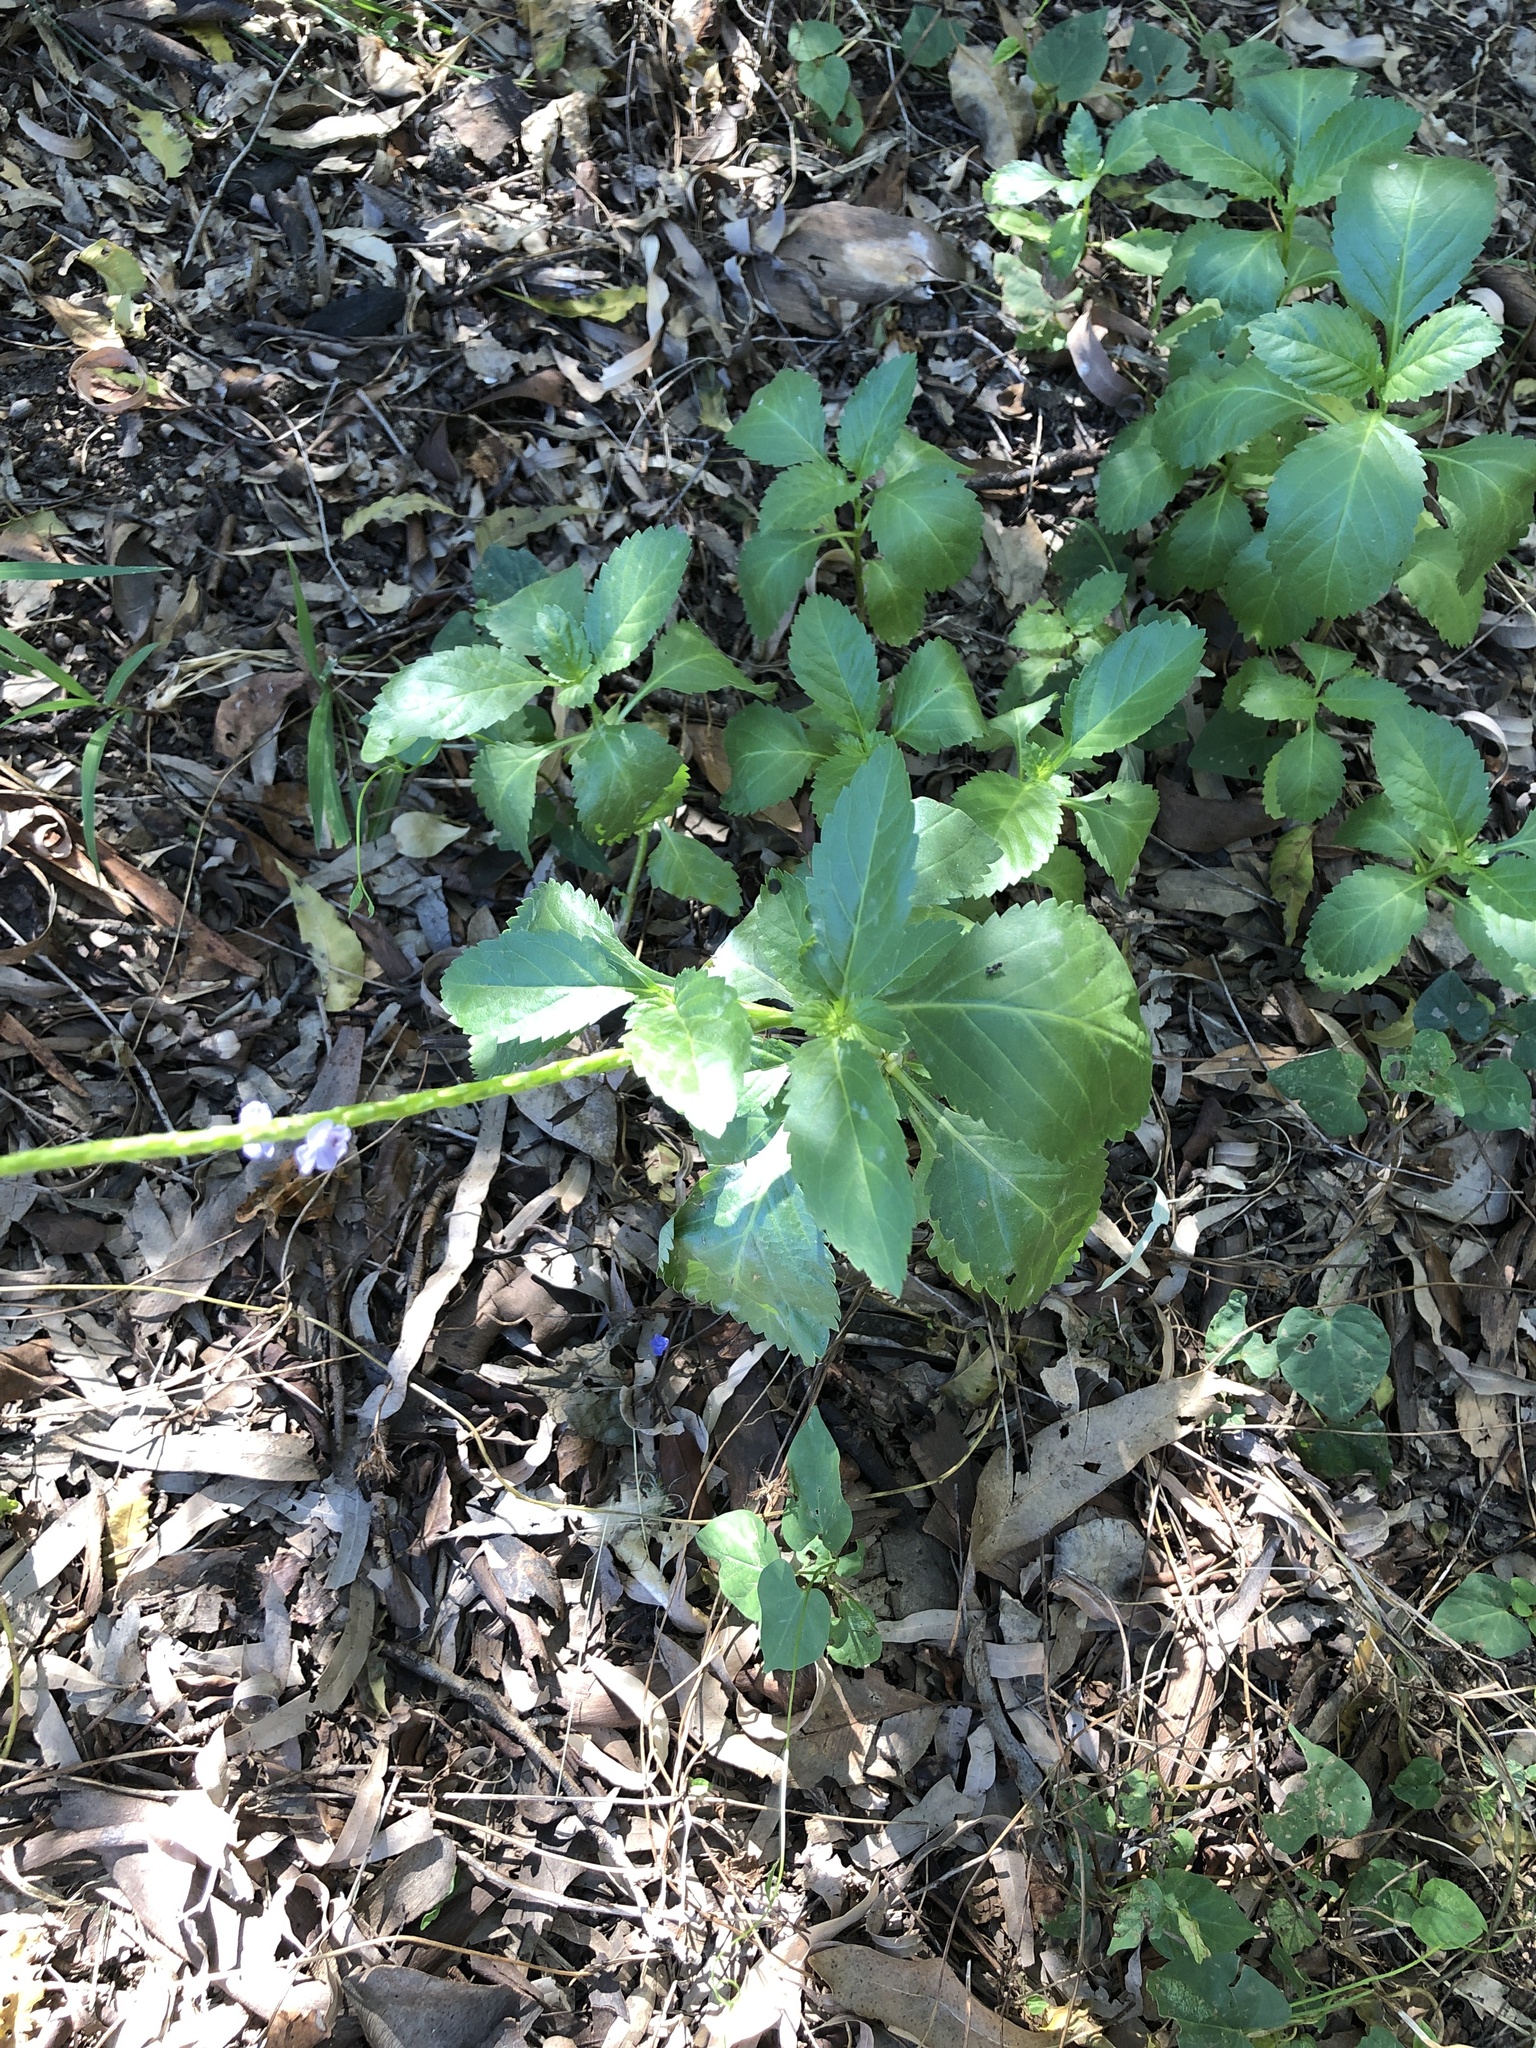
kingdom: Plantae
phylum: Tracheophyta
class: Magnoliopsida
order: Lamiales
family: Verbenaceae
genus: Stachytarpheta
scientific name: Stachytarpheta jamaicensis
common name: Light-blue snakeweed
